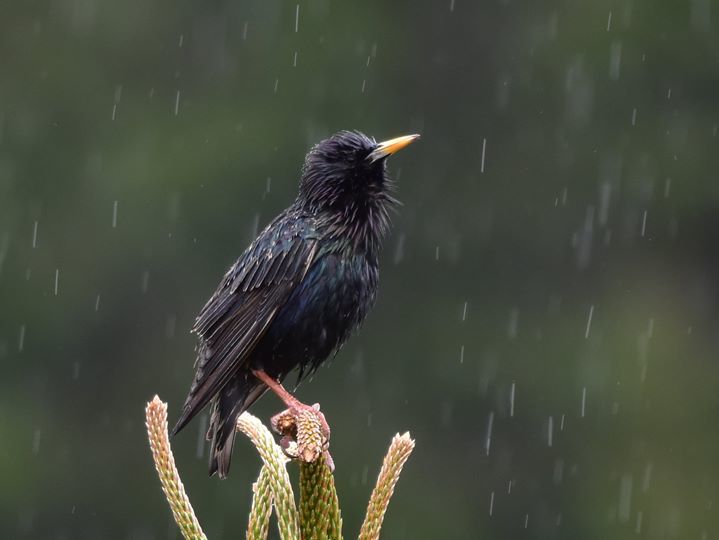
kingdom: Animalia
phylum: Chordata
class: Aves
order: Passeriformes
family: Sturnidae
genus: Sturnus
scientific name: Sturnus vulgaris
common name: Common starling
